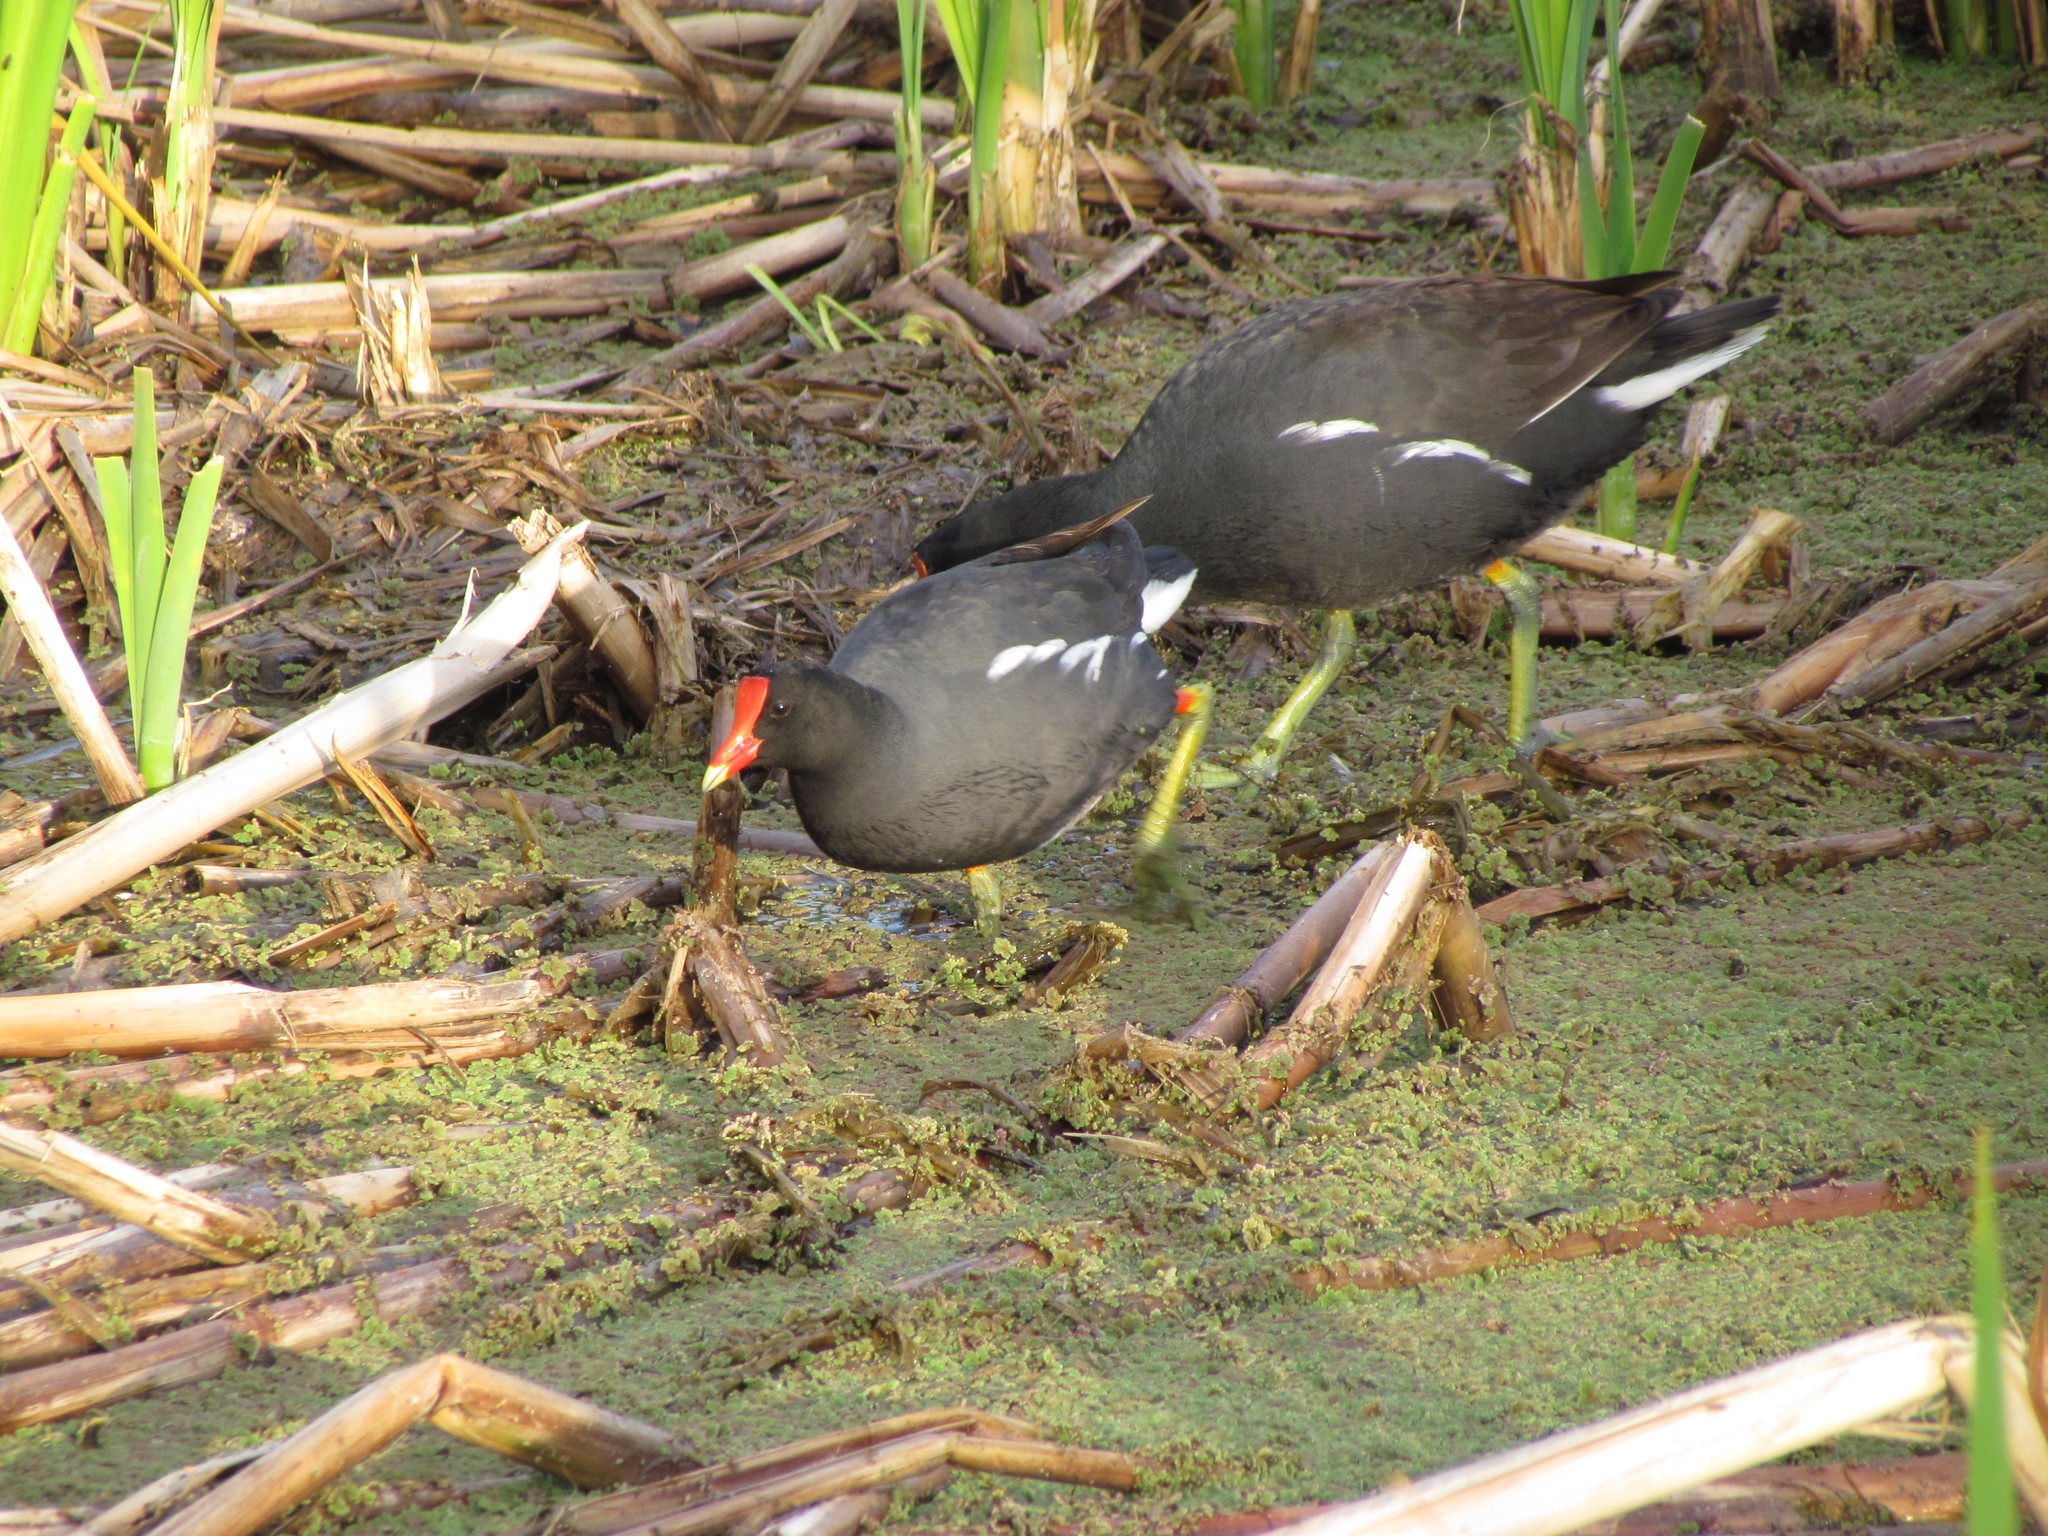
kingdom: Animalia
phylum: Chordata
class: Aves
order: Gruiformes
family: Rallidae
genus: Gallinula
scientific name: Gallinula chloropus
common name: Common moorhen
